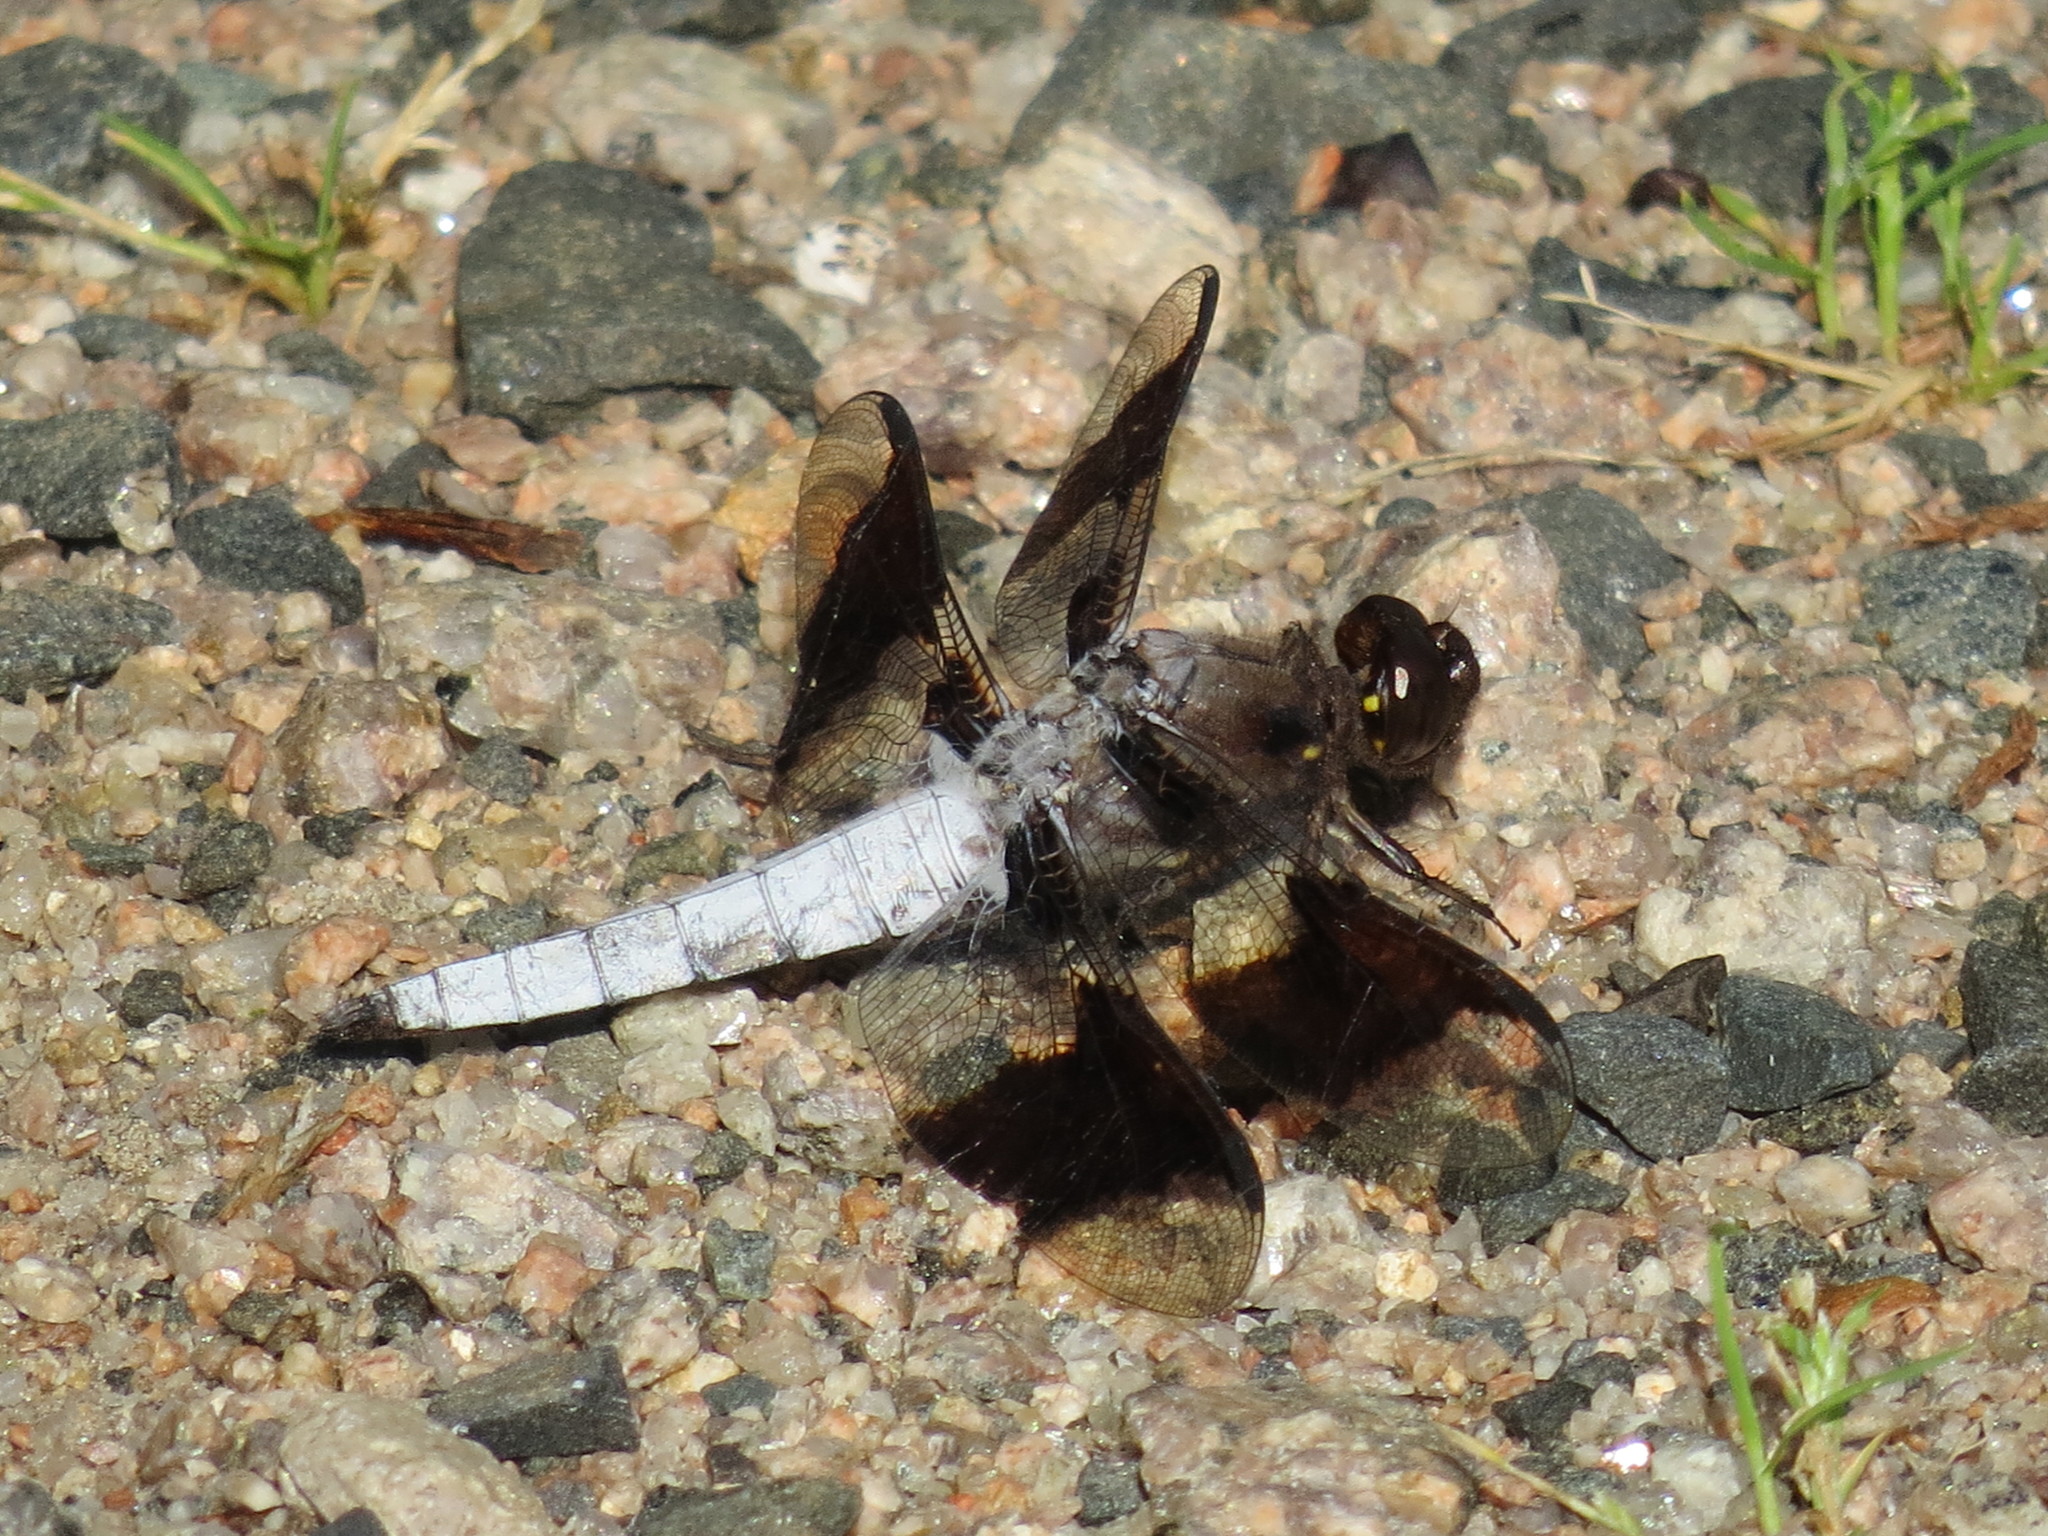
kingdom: Animalia
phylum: Arthropoda
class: Insecta
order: Odonata
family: Libellulidae
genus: Plathemis
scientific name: Plathemis lydia
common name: Common whitetail
